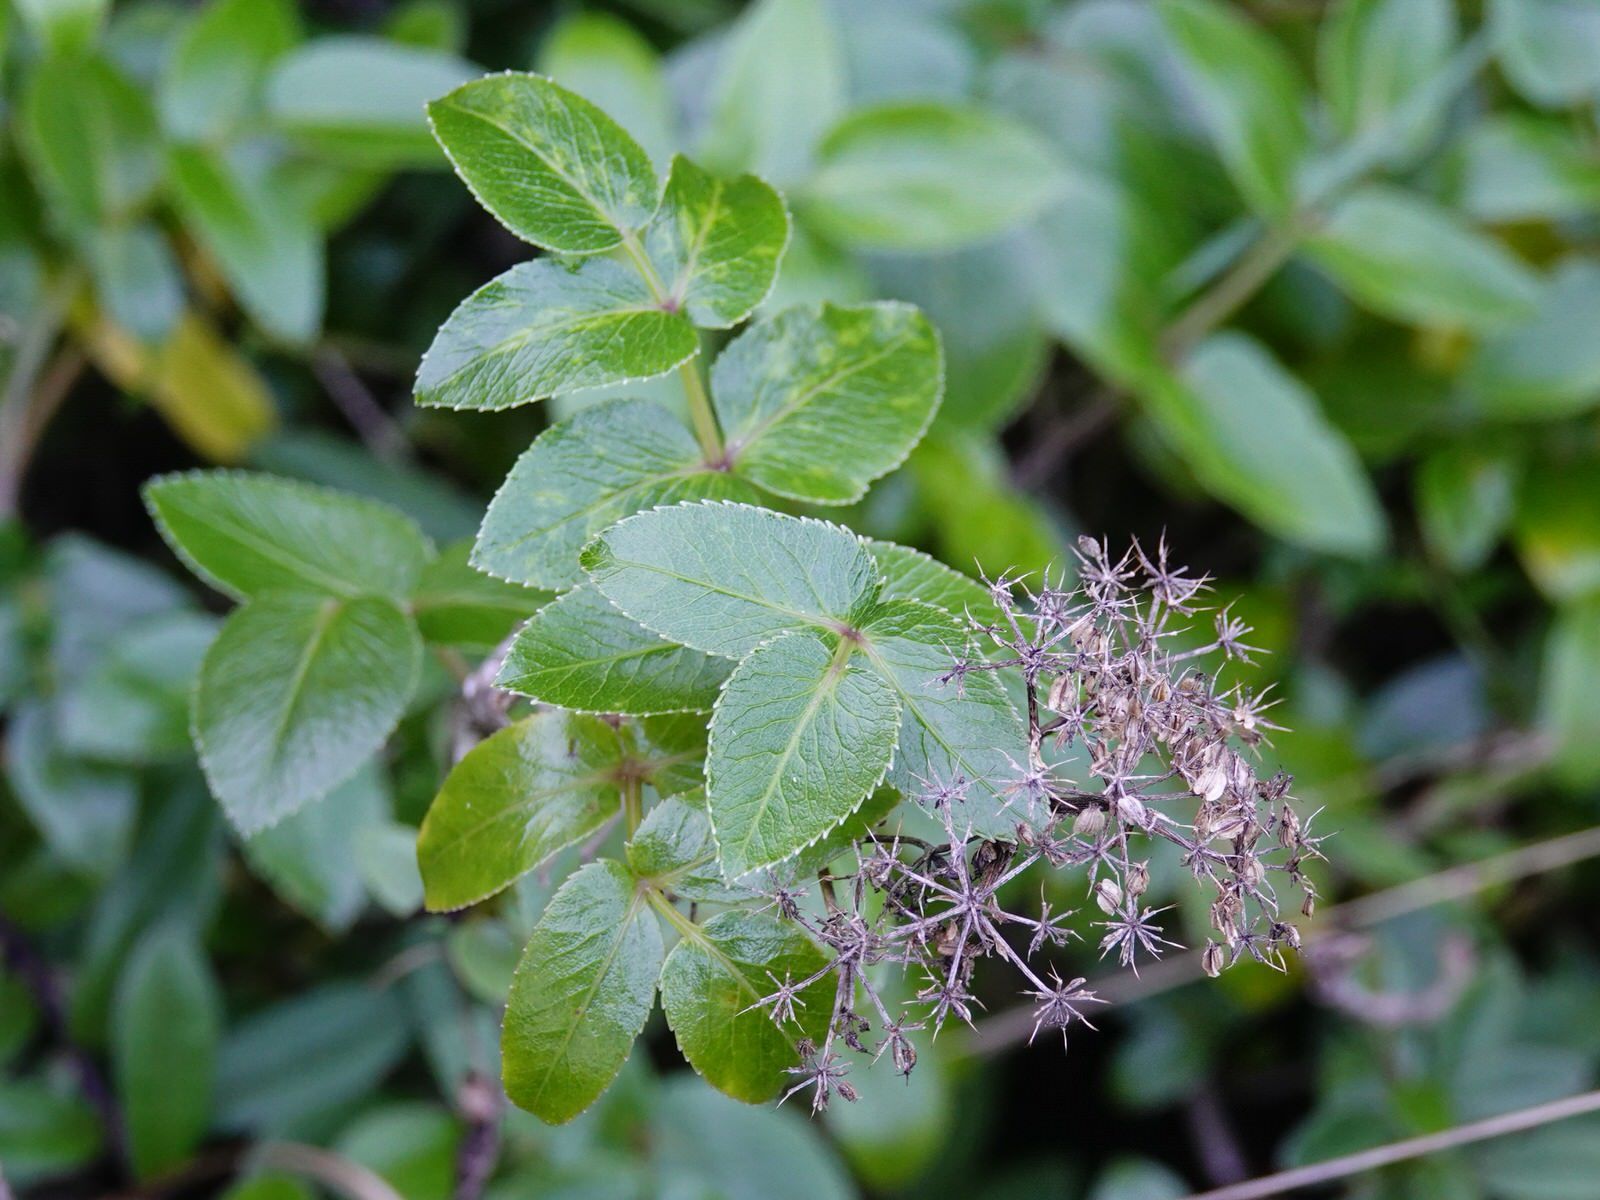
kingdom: Plantae
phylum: Tracheophyta
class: Magnoliopsida
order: Apiales
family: Apiaceae
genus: Scandia
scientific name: Scandia rosifolia
